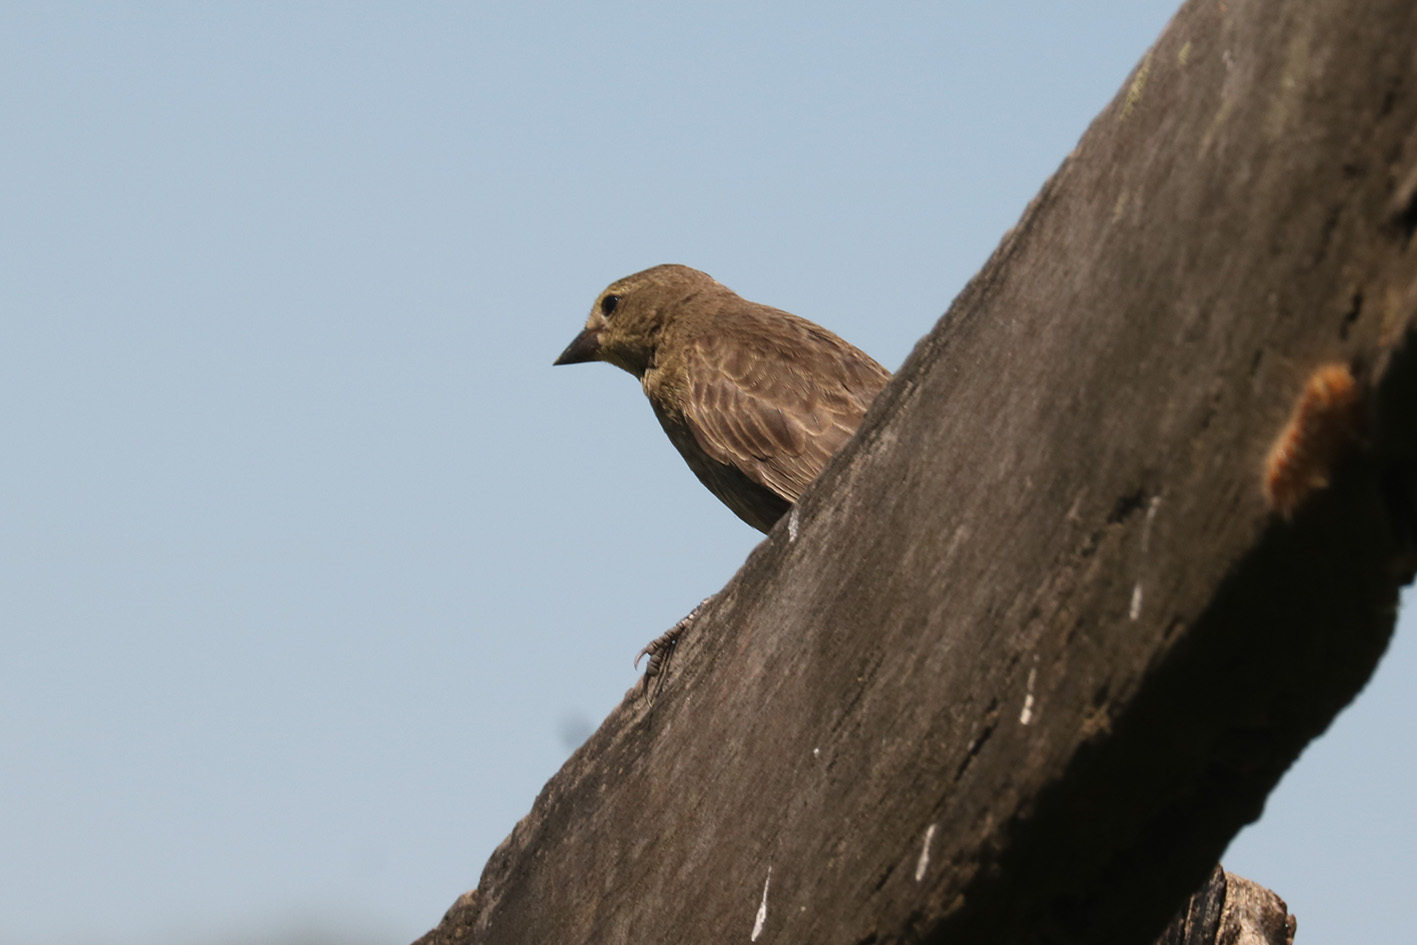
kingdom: Animalia
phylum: Chordata
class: Aves
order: Passeriformes
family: Icteridae
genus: Molothrus
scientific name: Molothrus bonariensis
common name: Shiny cowbird
